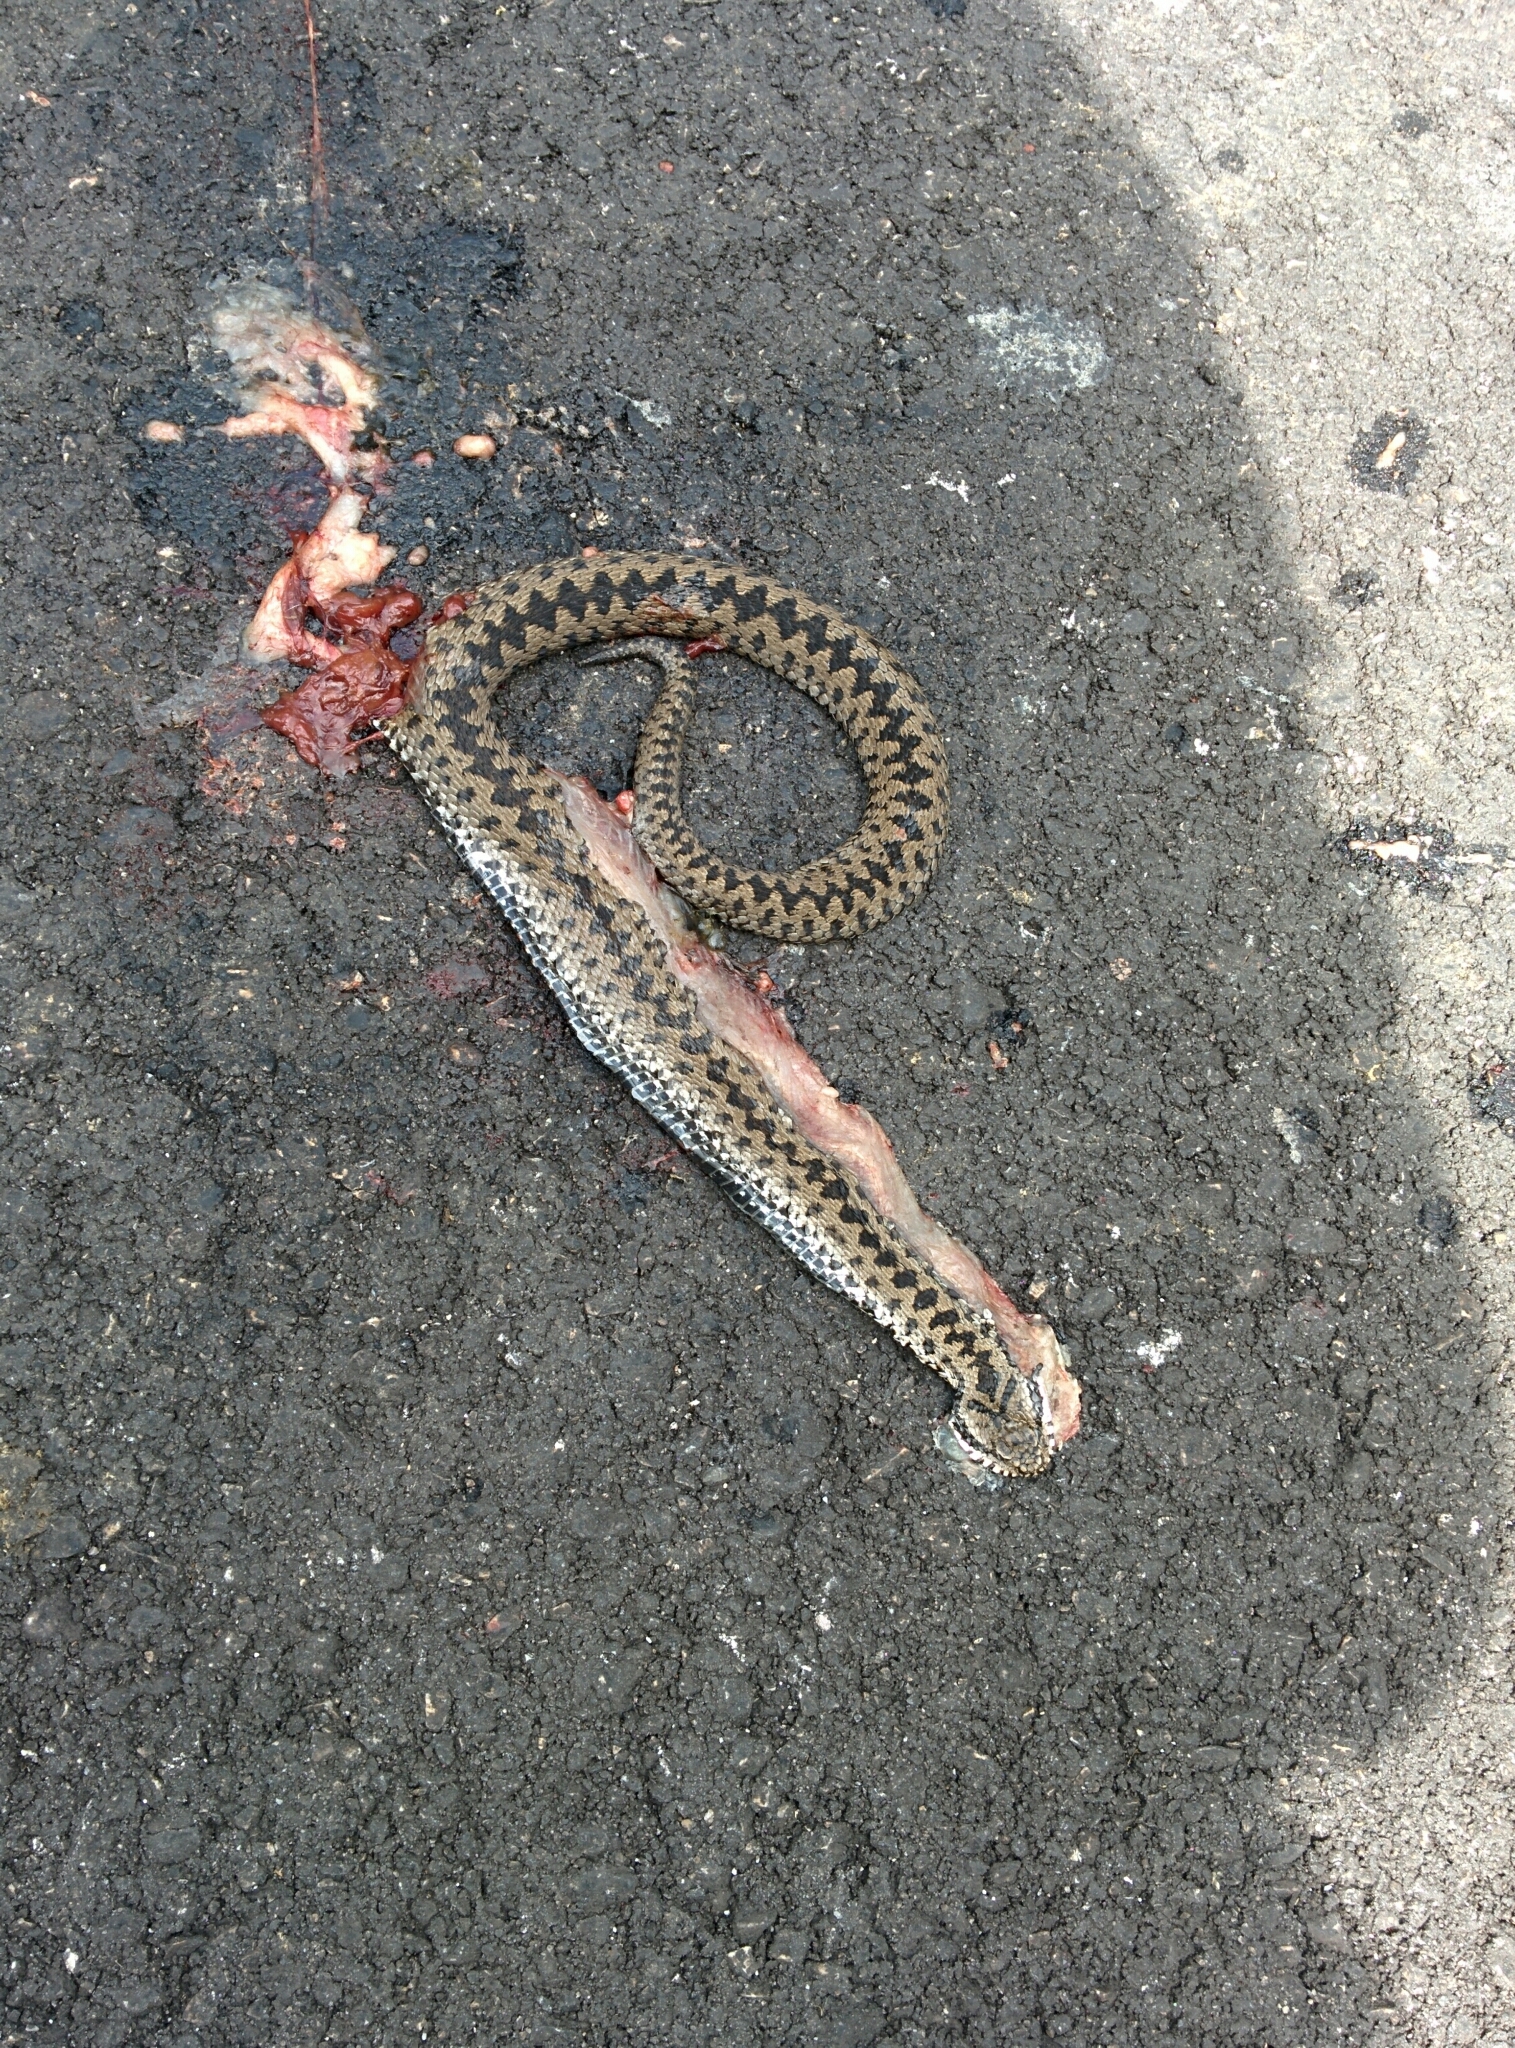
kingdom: Animalia
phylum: Chordata
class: Squamata
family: Viperidae
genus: Vipera
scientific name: Vipera berus
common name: Adder
